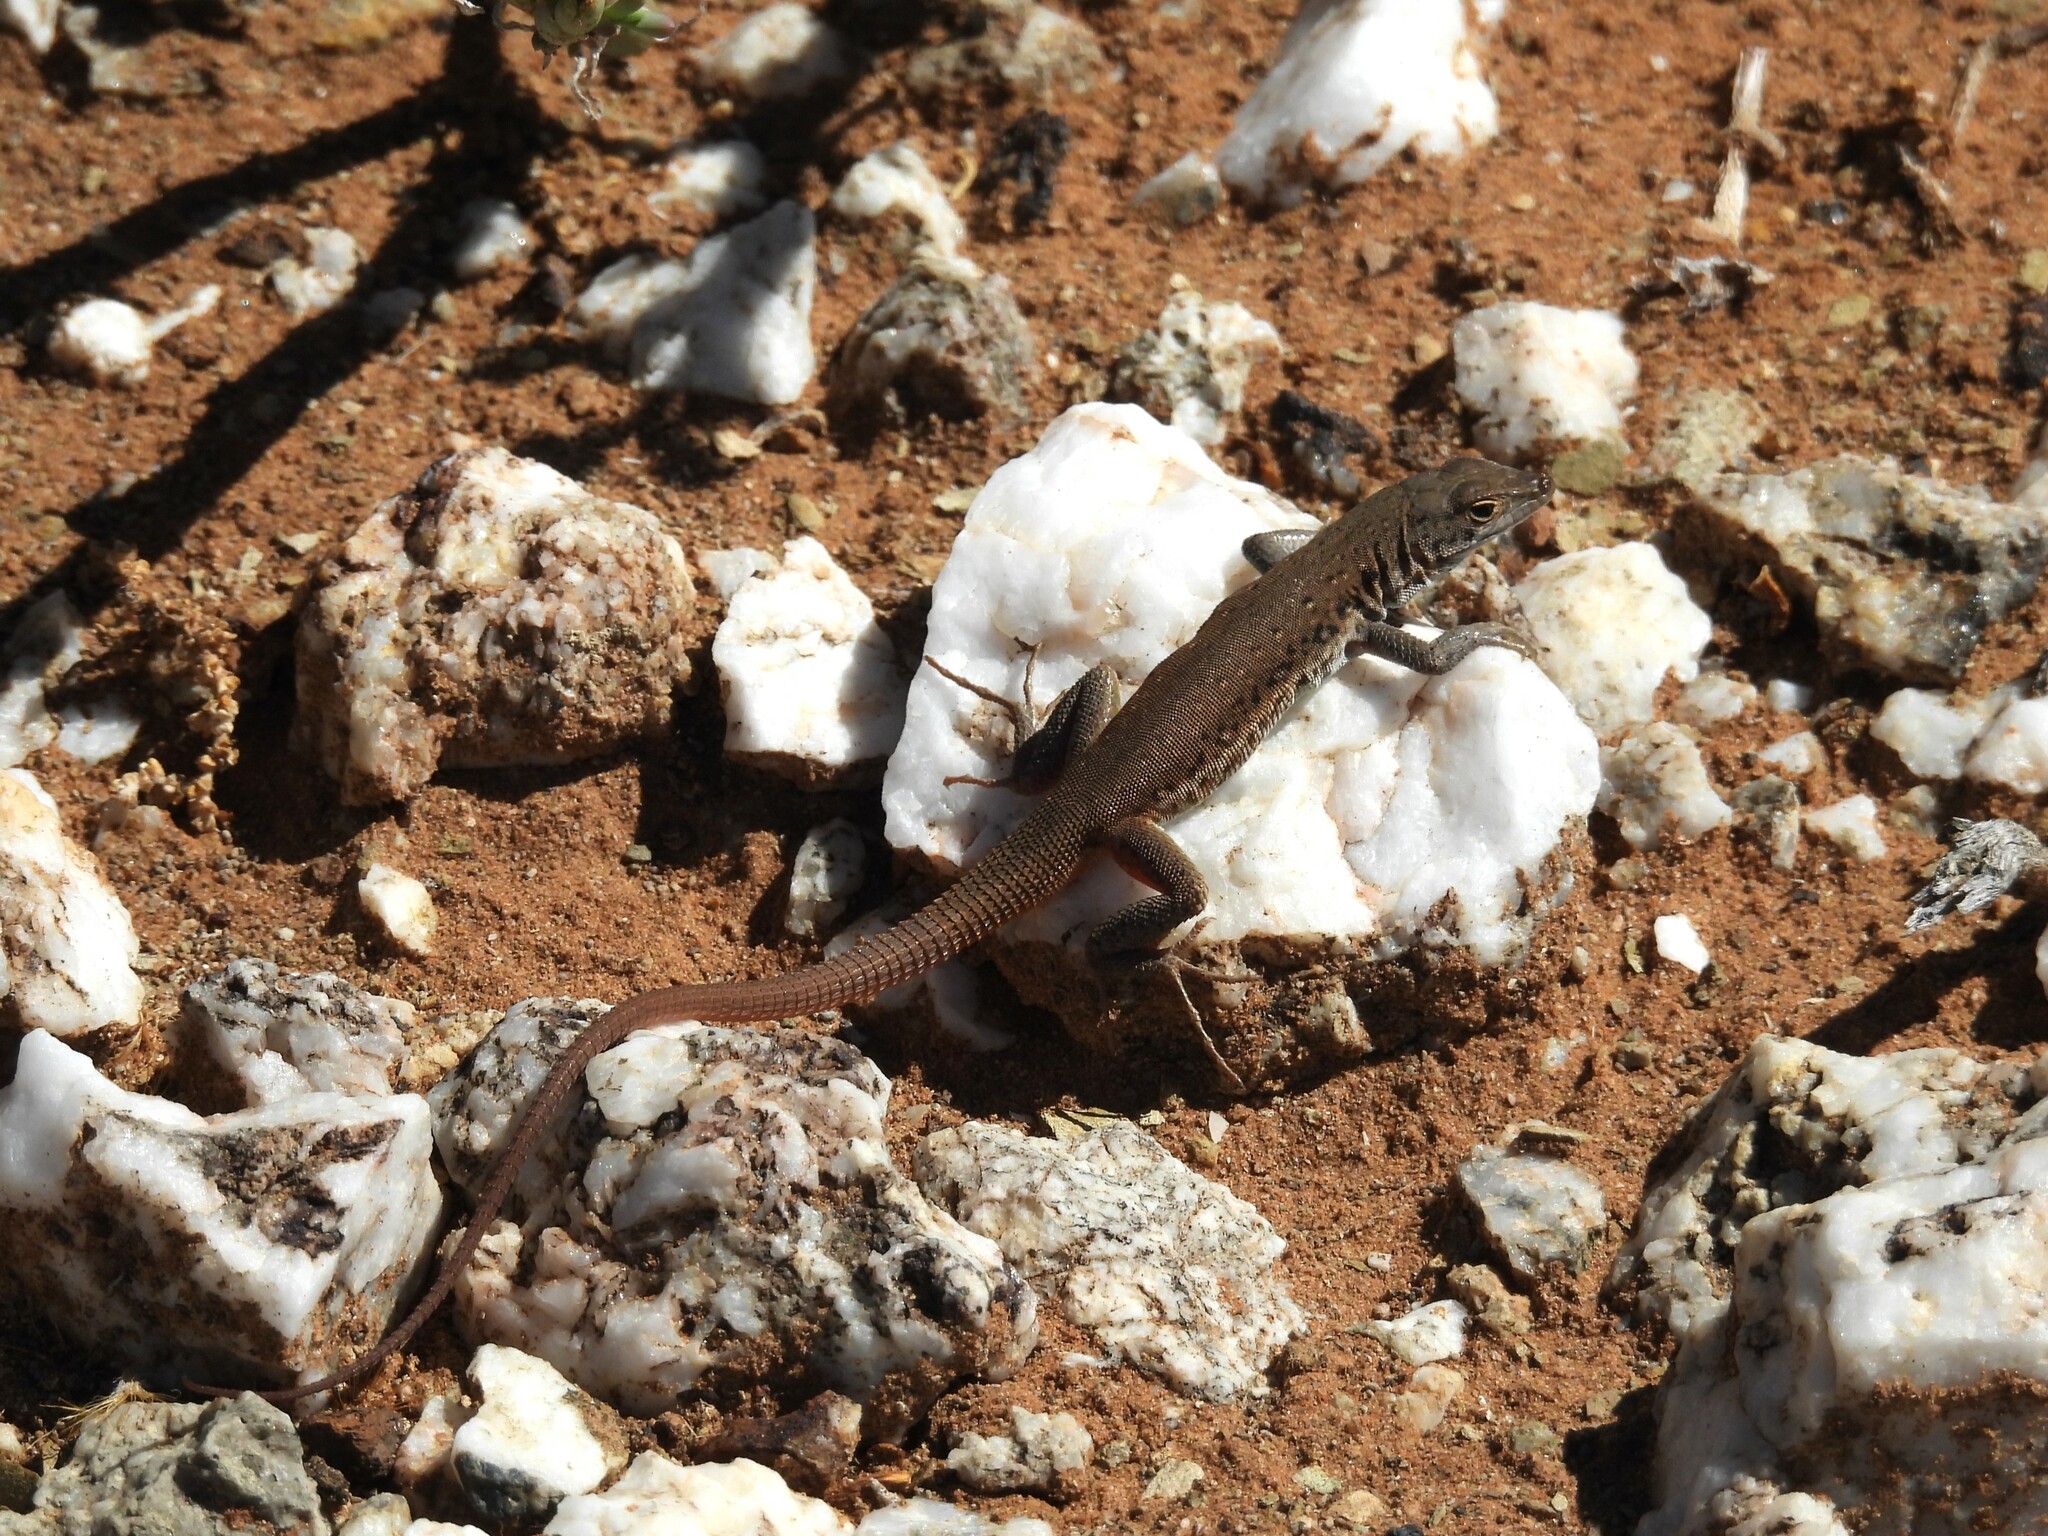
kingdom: Animalia
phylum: Chordata
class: Squamata
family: Lacertidae
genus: Pedioplanis
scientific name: Pedioplanis lineoocellata
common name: Spotted sand lizard
